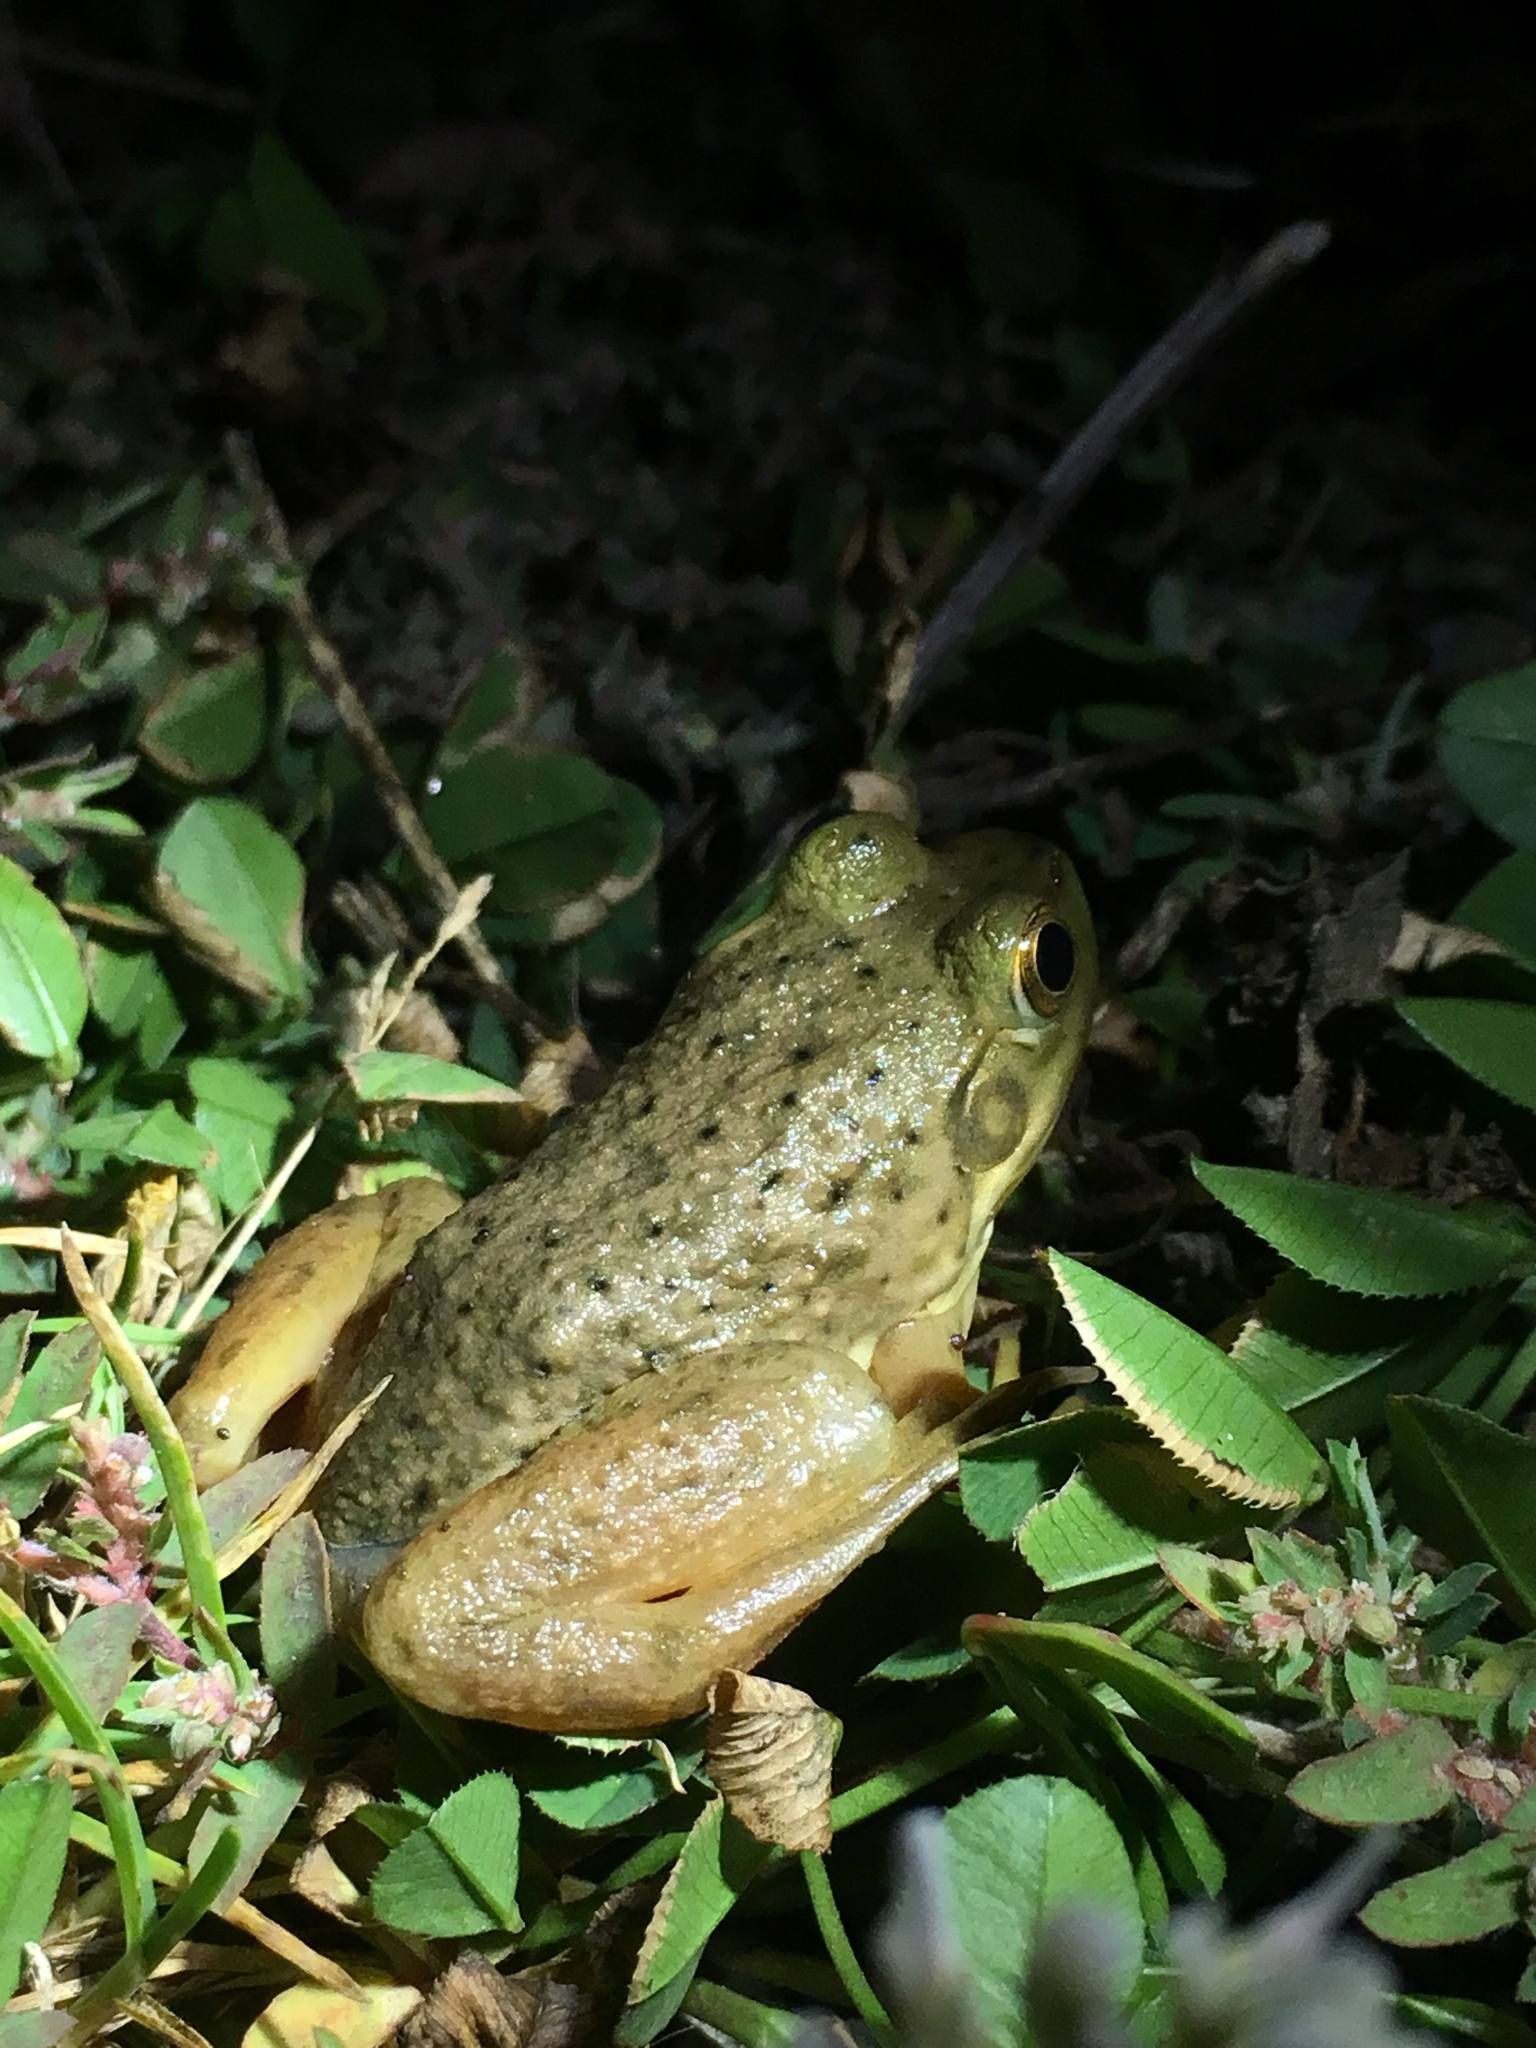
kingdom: Animalia
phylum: Chordata
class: Amphibia
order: Anura
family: Ranidae
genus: Lithobates
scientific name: Lithobates catesbeianus
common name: American bullfrog
